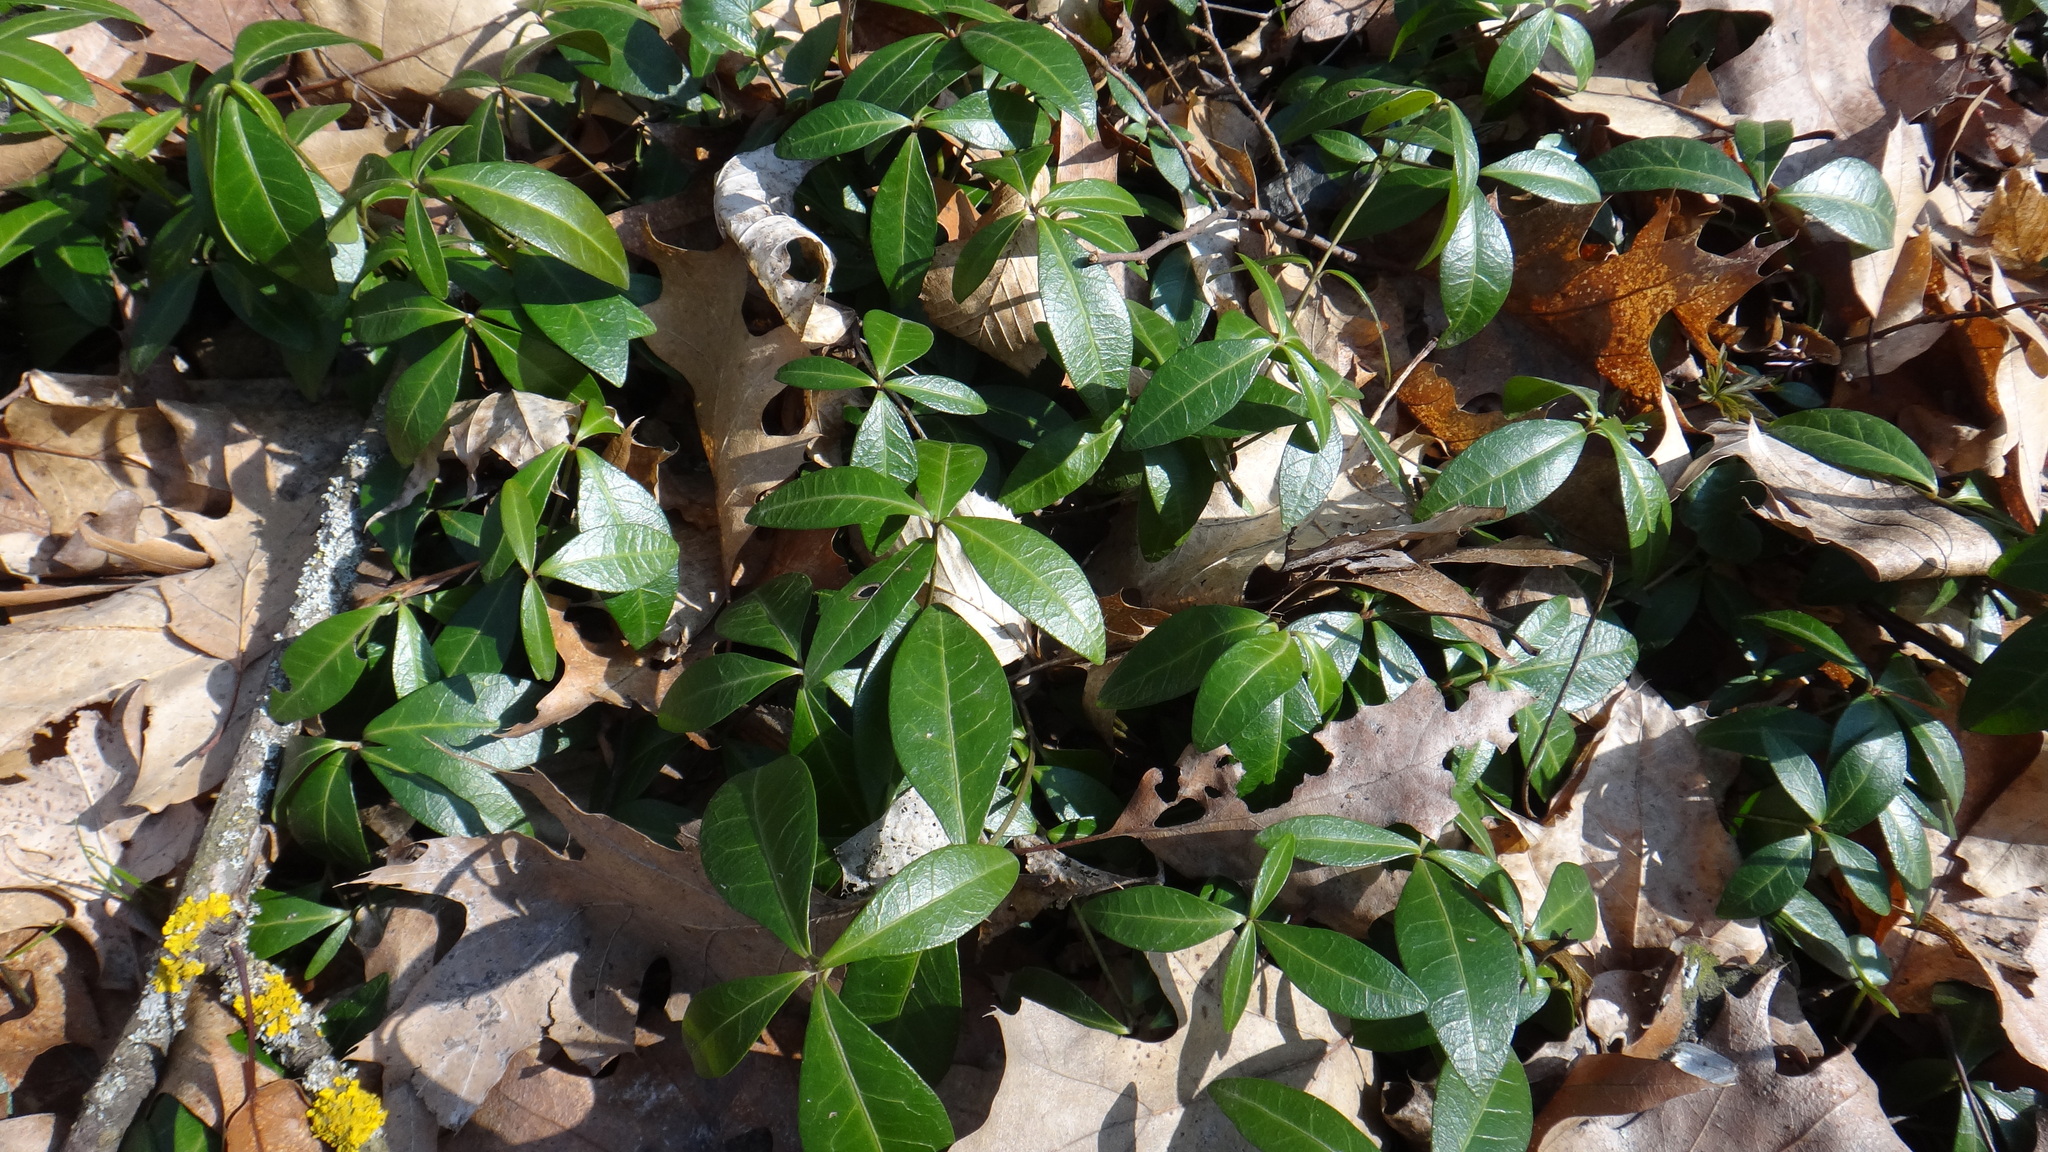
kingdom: Plantae
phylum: Tracheophyta
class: Magnoliopsida
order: Gentianales
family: Apocynaceae
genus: Vinca
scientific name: Vinca minor
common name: Lesser periwinkle
